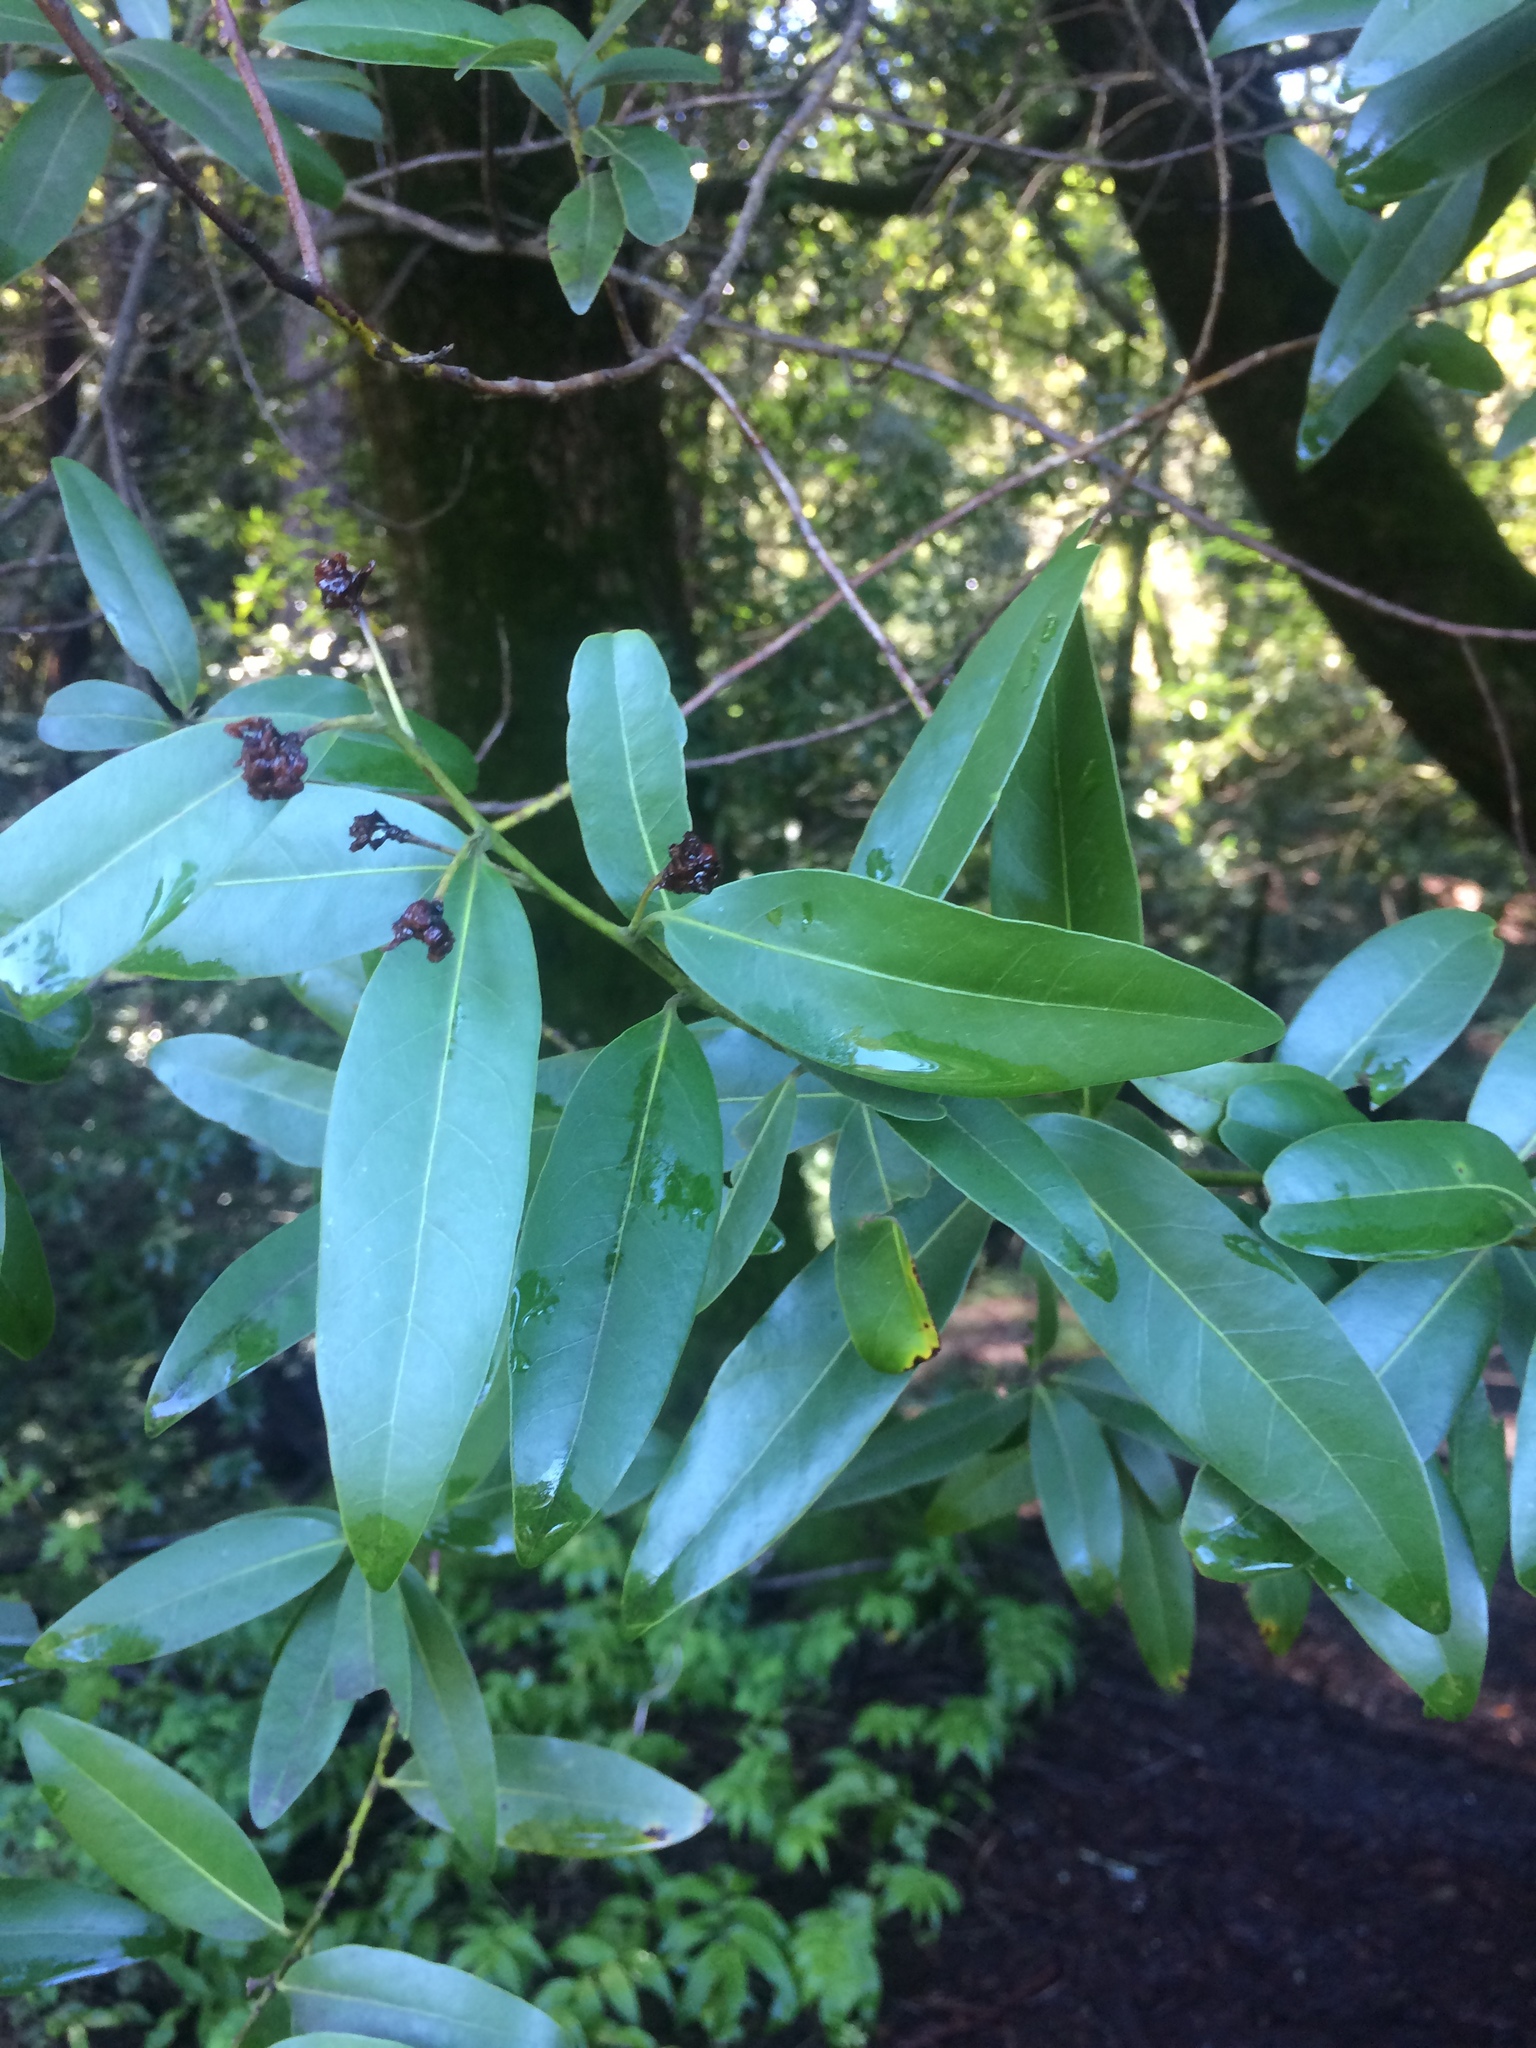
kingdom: Plantae
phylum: Tracheophyta
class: Magnoliopsida
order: Laurales
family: Lauraceae
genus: Umbellularia
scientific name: Umbellularia californica
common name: California bay
